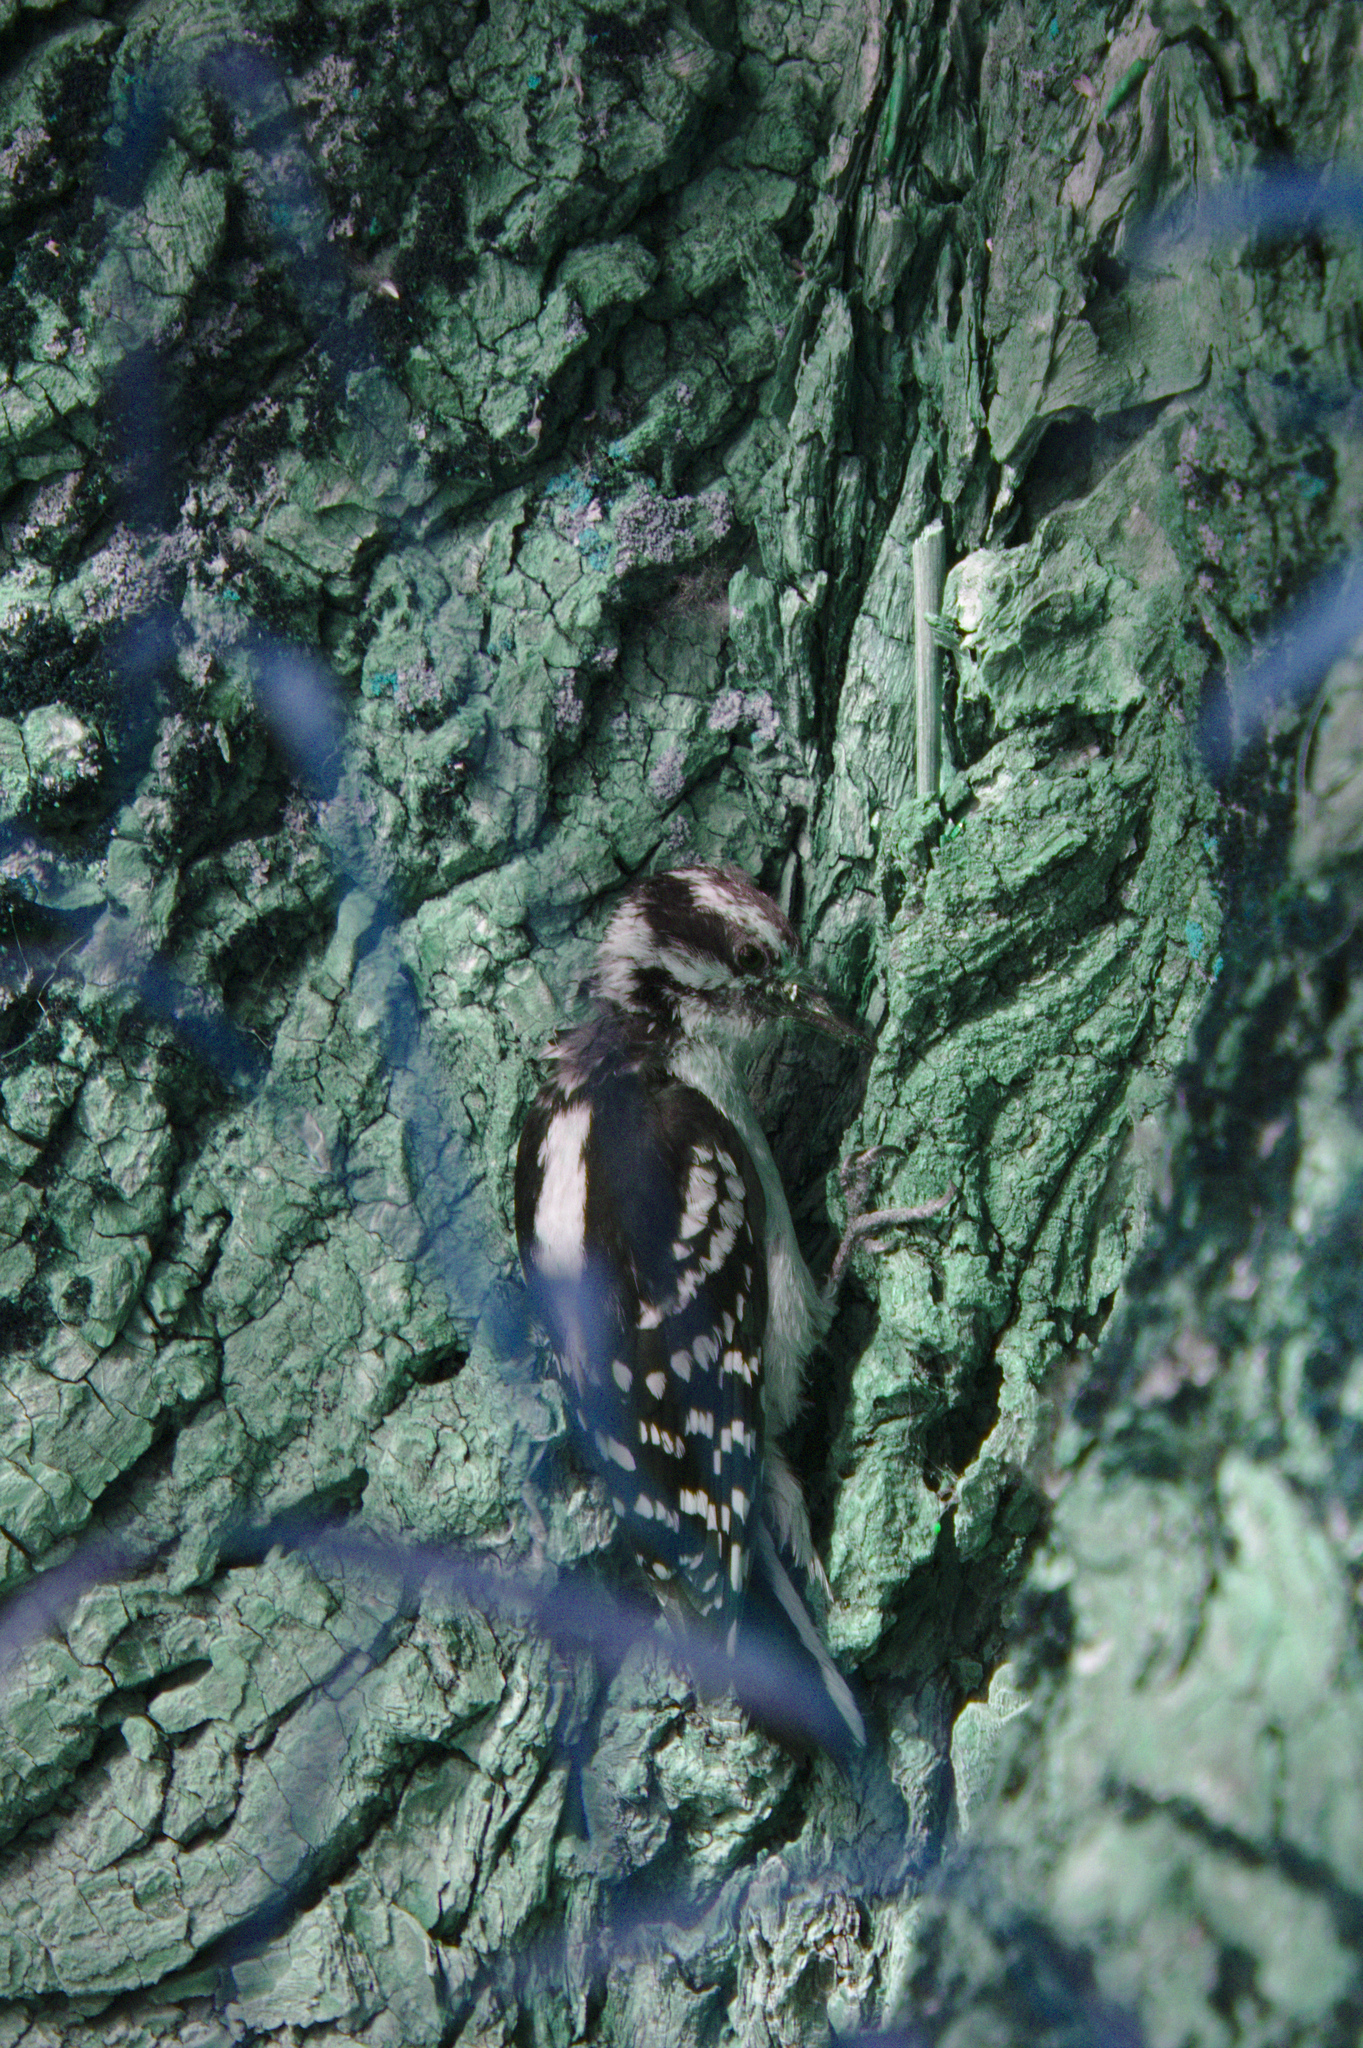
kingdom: Animalia
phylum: Chordata
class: Aves
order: Piciformes
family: Picidae
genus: Leuconotopicus
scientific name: Leuconotopicus villosus
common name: Hairy woodpecker
